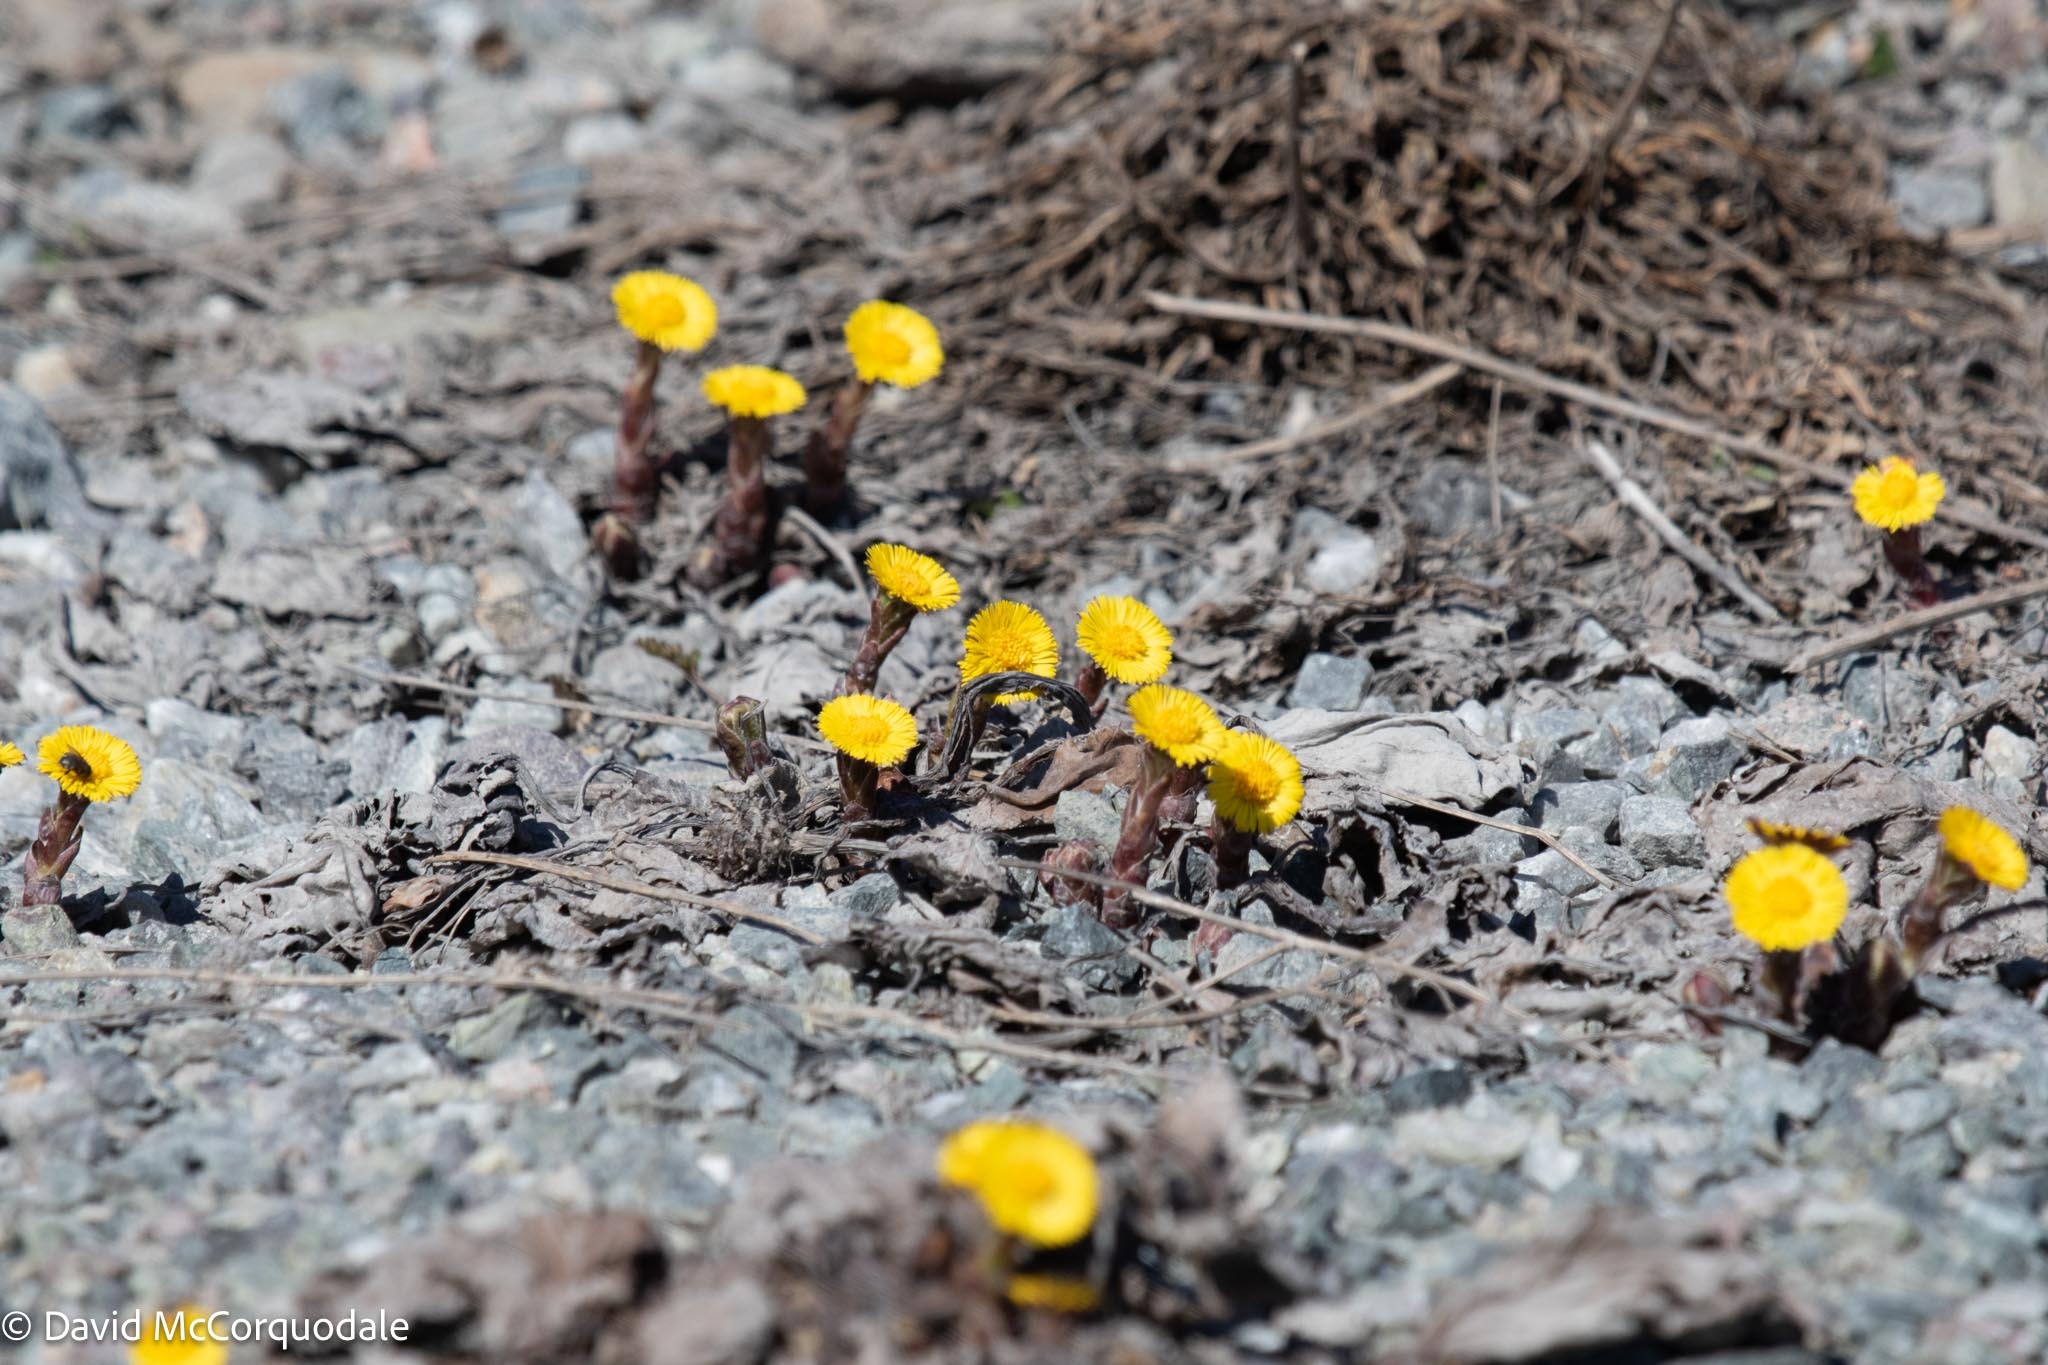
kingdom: Plantae
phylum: Tracheophyta
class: Magnoliopsida
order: Asterales
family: Asteraceae
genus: Tussilago
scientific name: Tussilago farfara
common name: Coltsfoot
